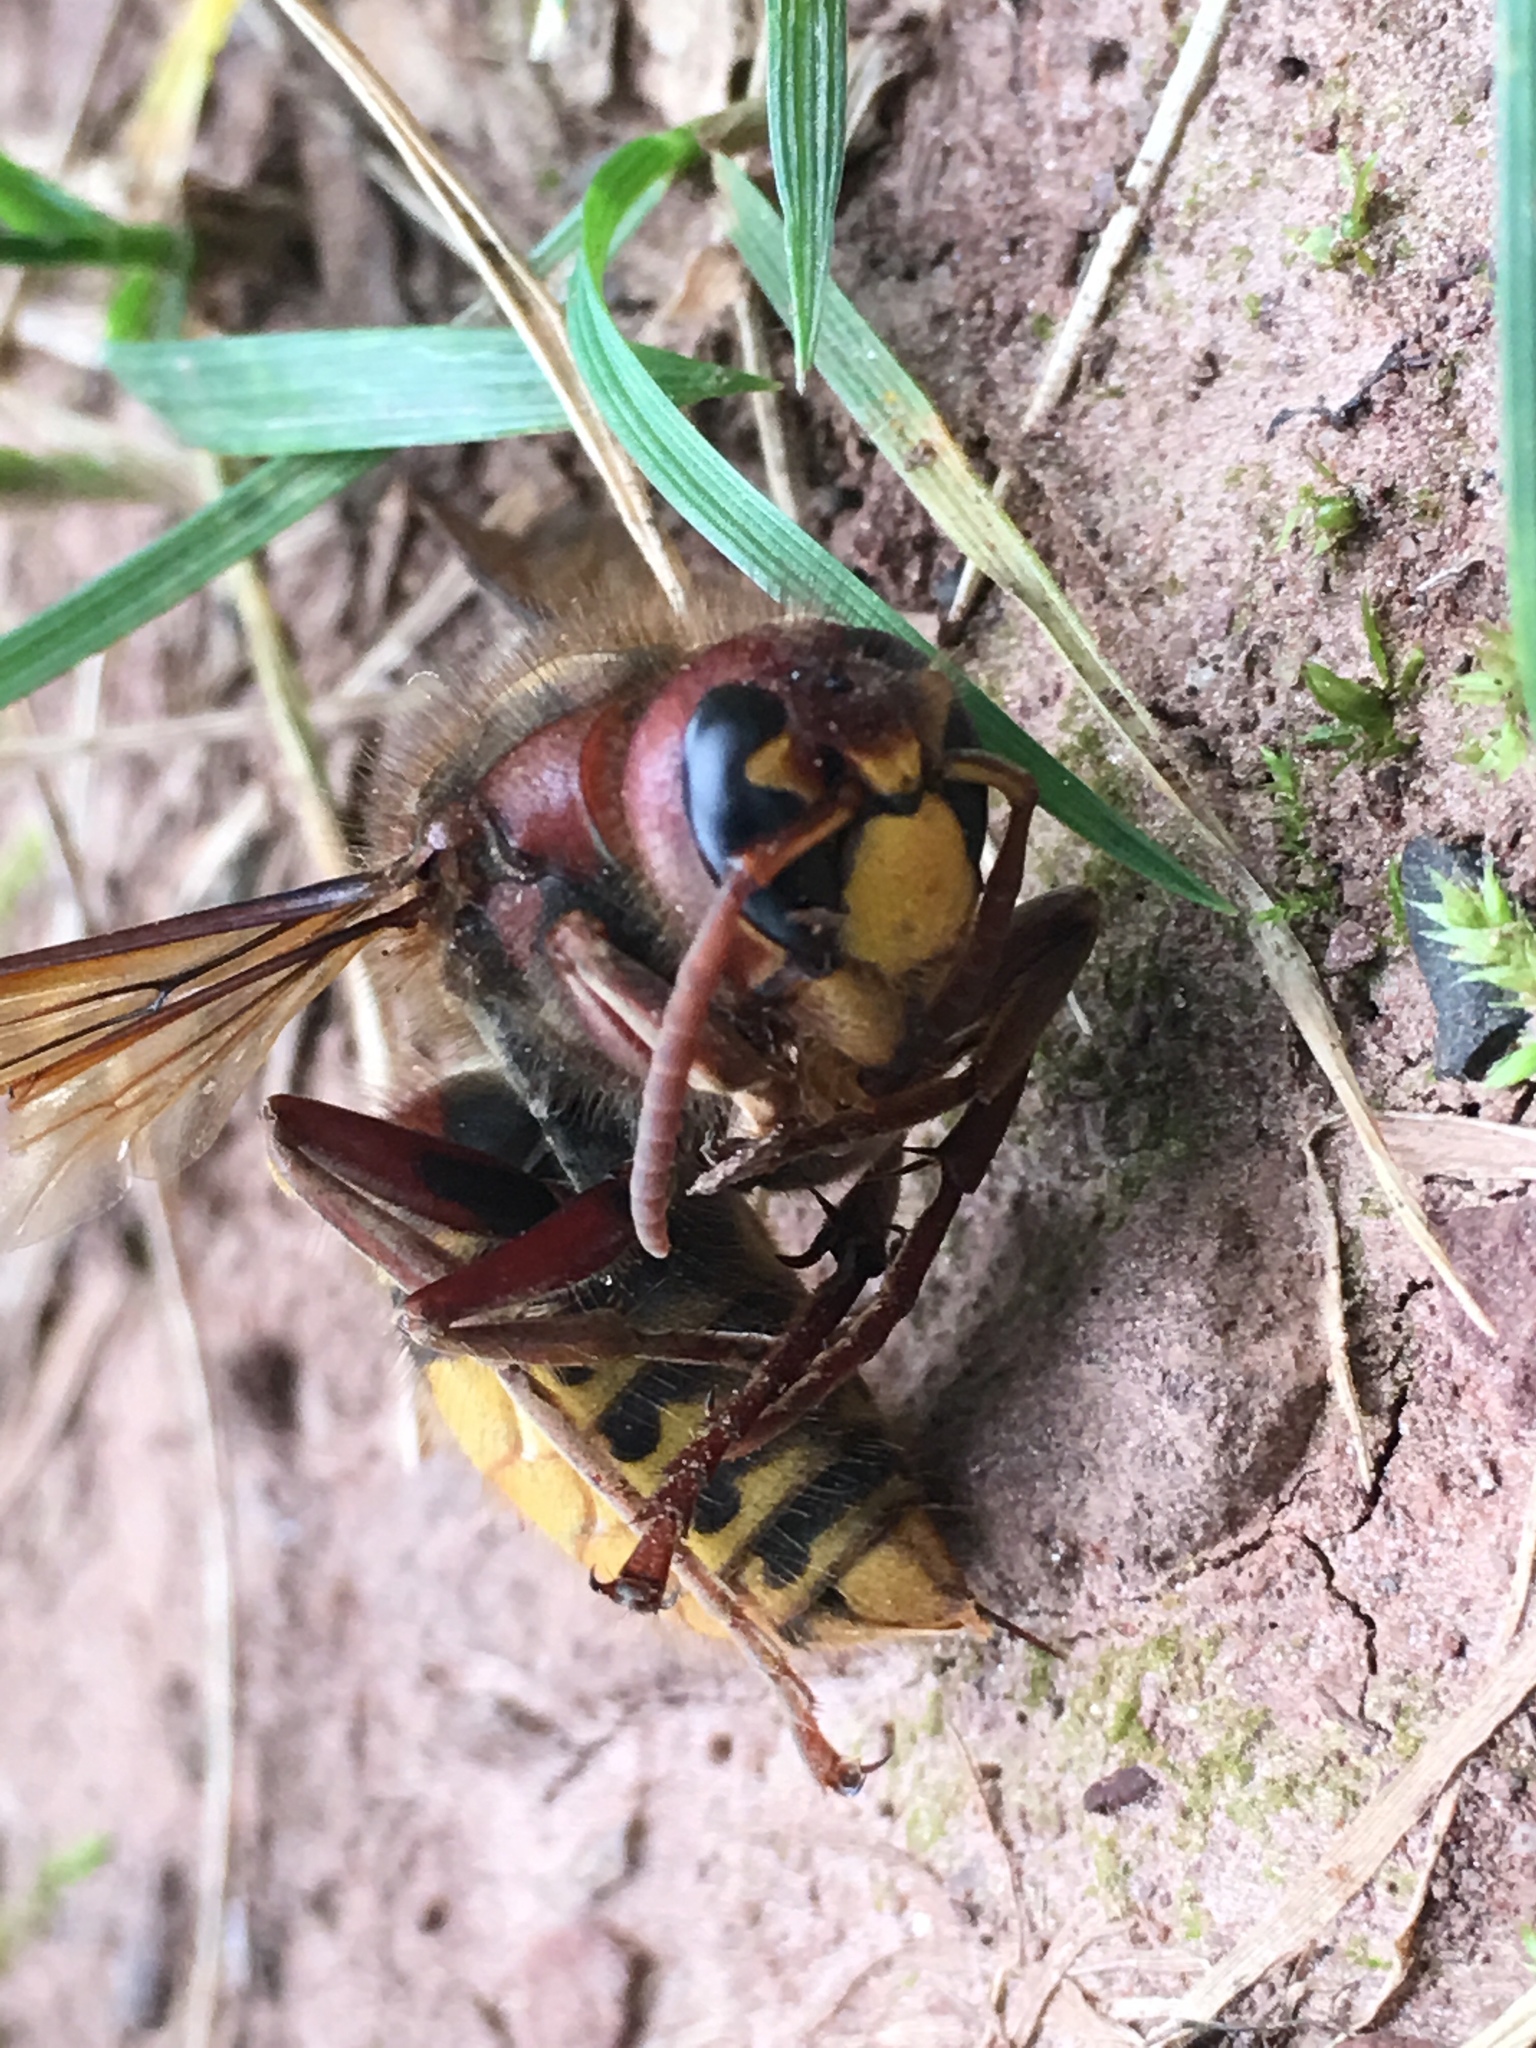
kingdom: Animalia
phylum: Arthropoda
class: Insecta
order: Hymenoptera
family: Vespidae
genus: Vespa
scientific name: Vespa crabro
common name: Hornet
